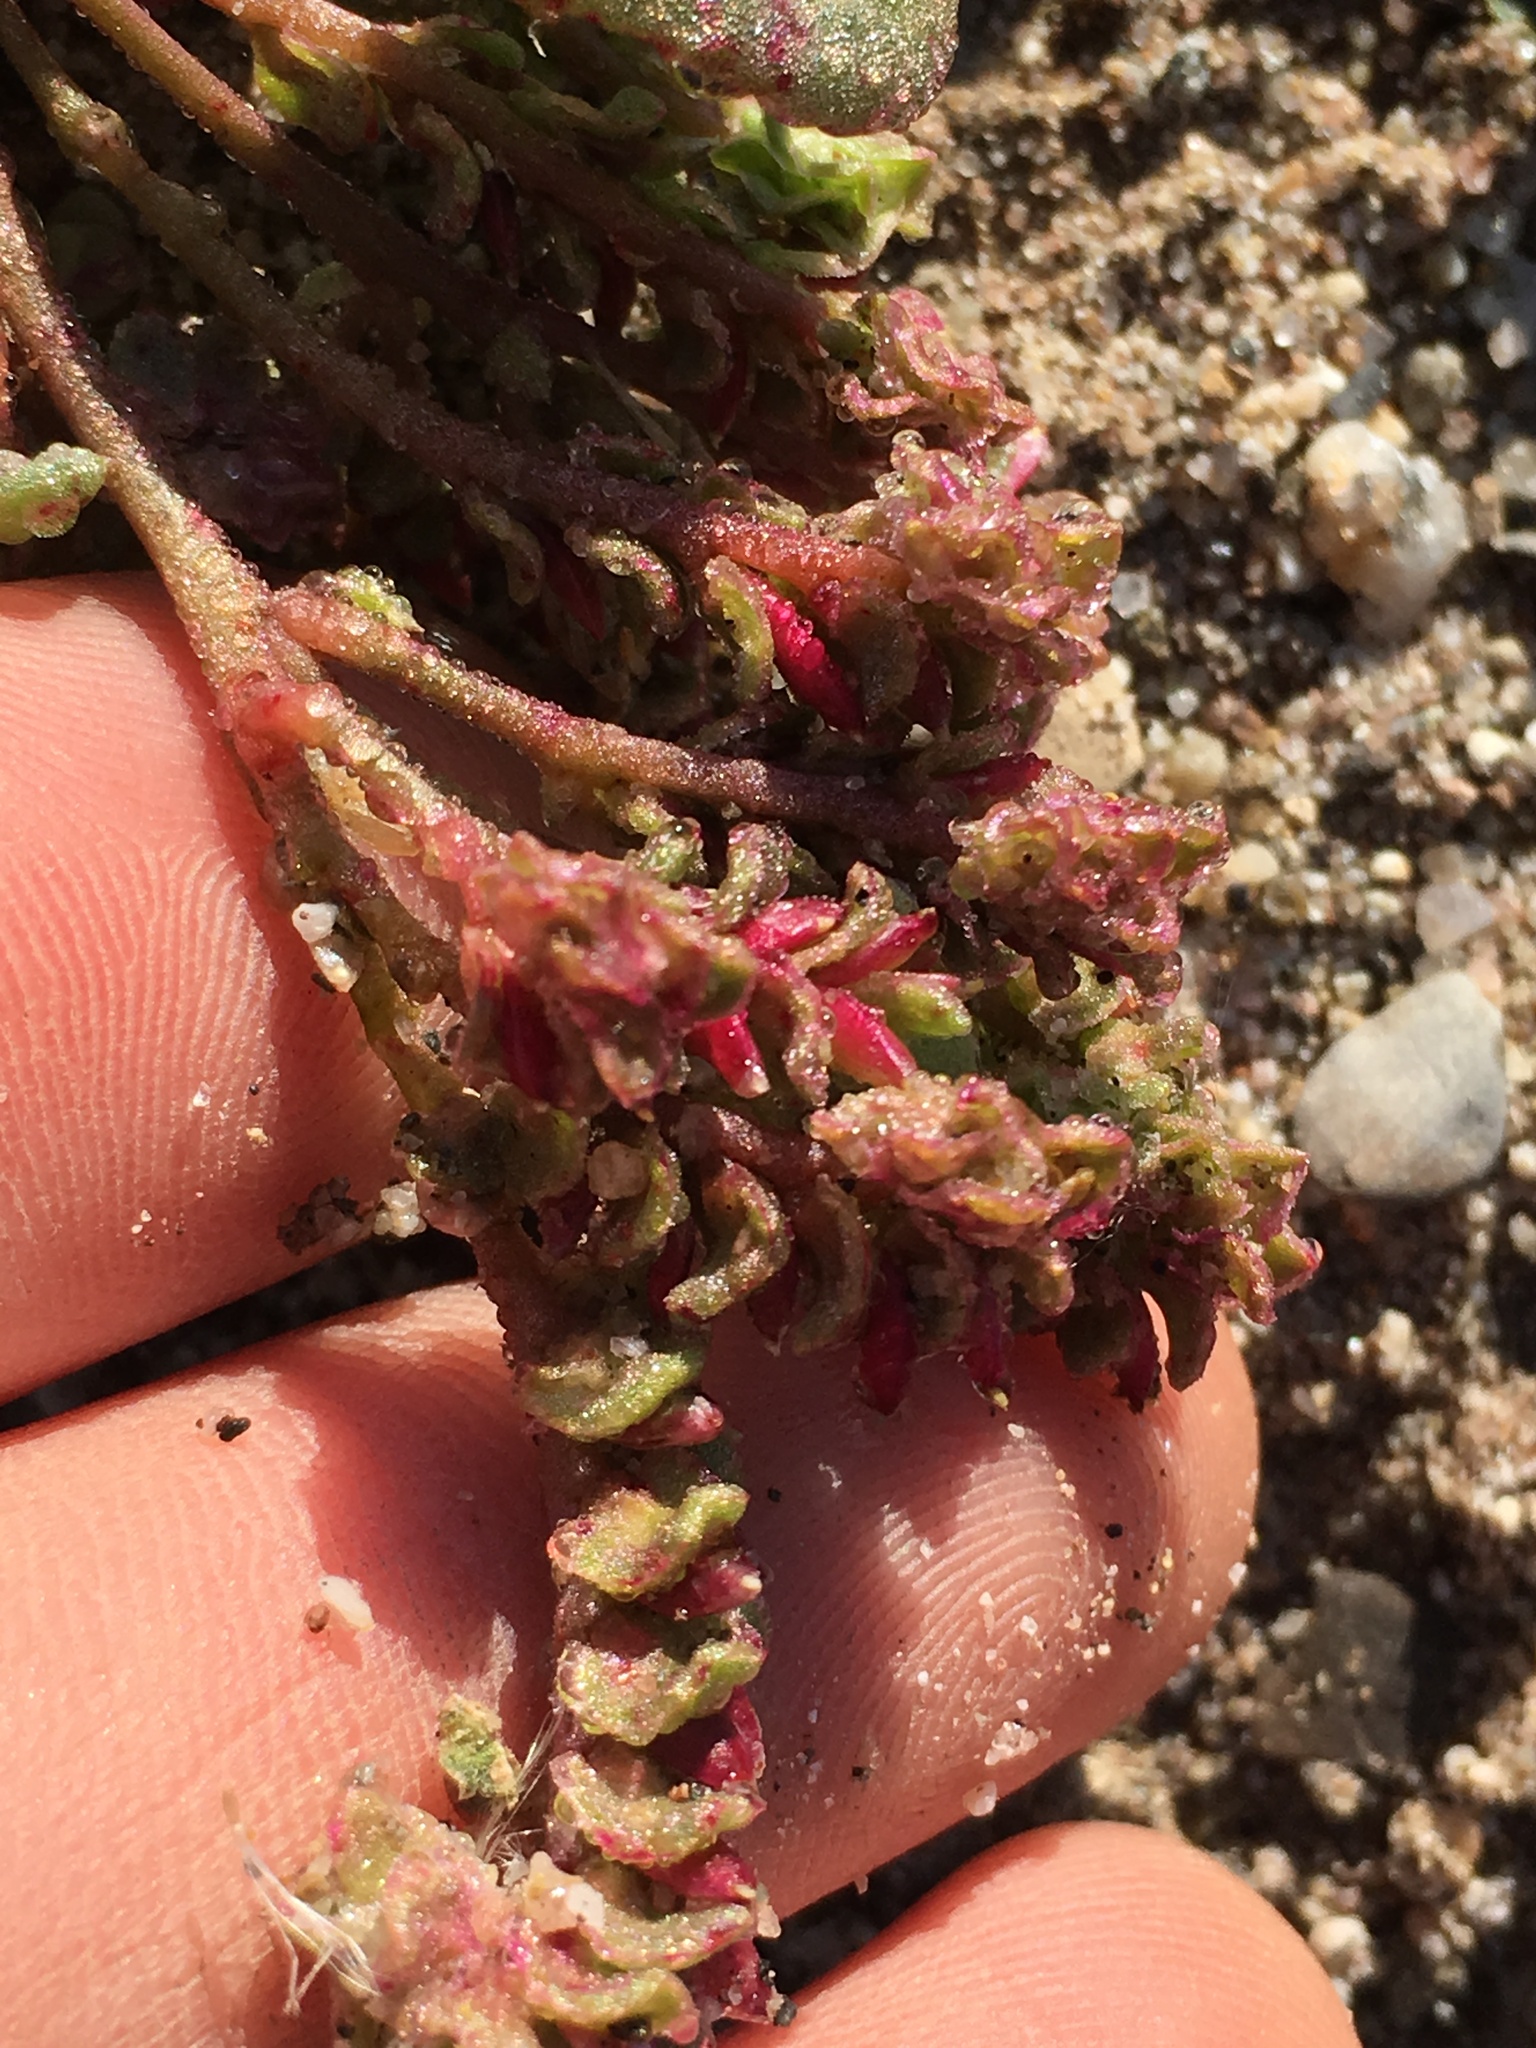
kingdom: Plantae
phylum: Tracheophyta
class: Magnoliopsida
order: Caryophyllales
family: Montiaceae
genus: Calyptridium
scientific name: Calyptridium monandrum
